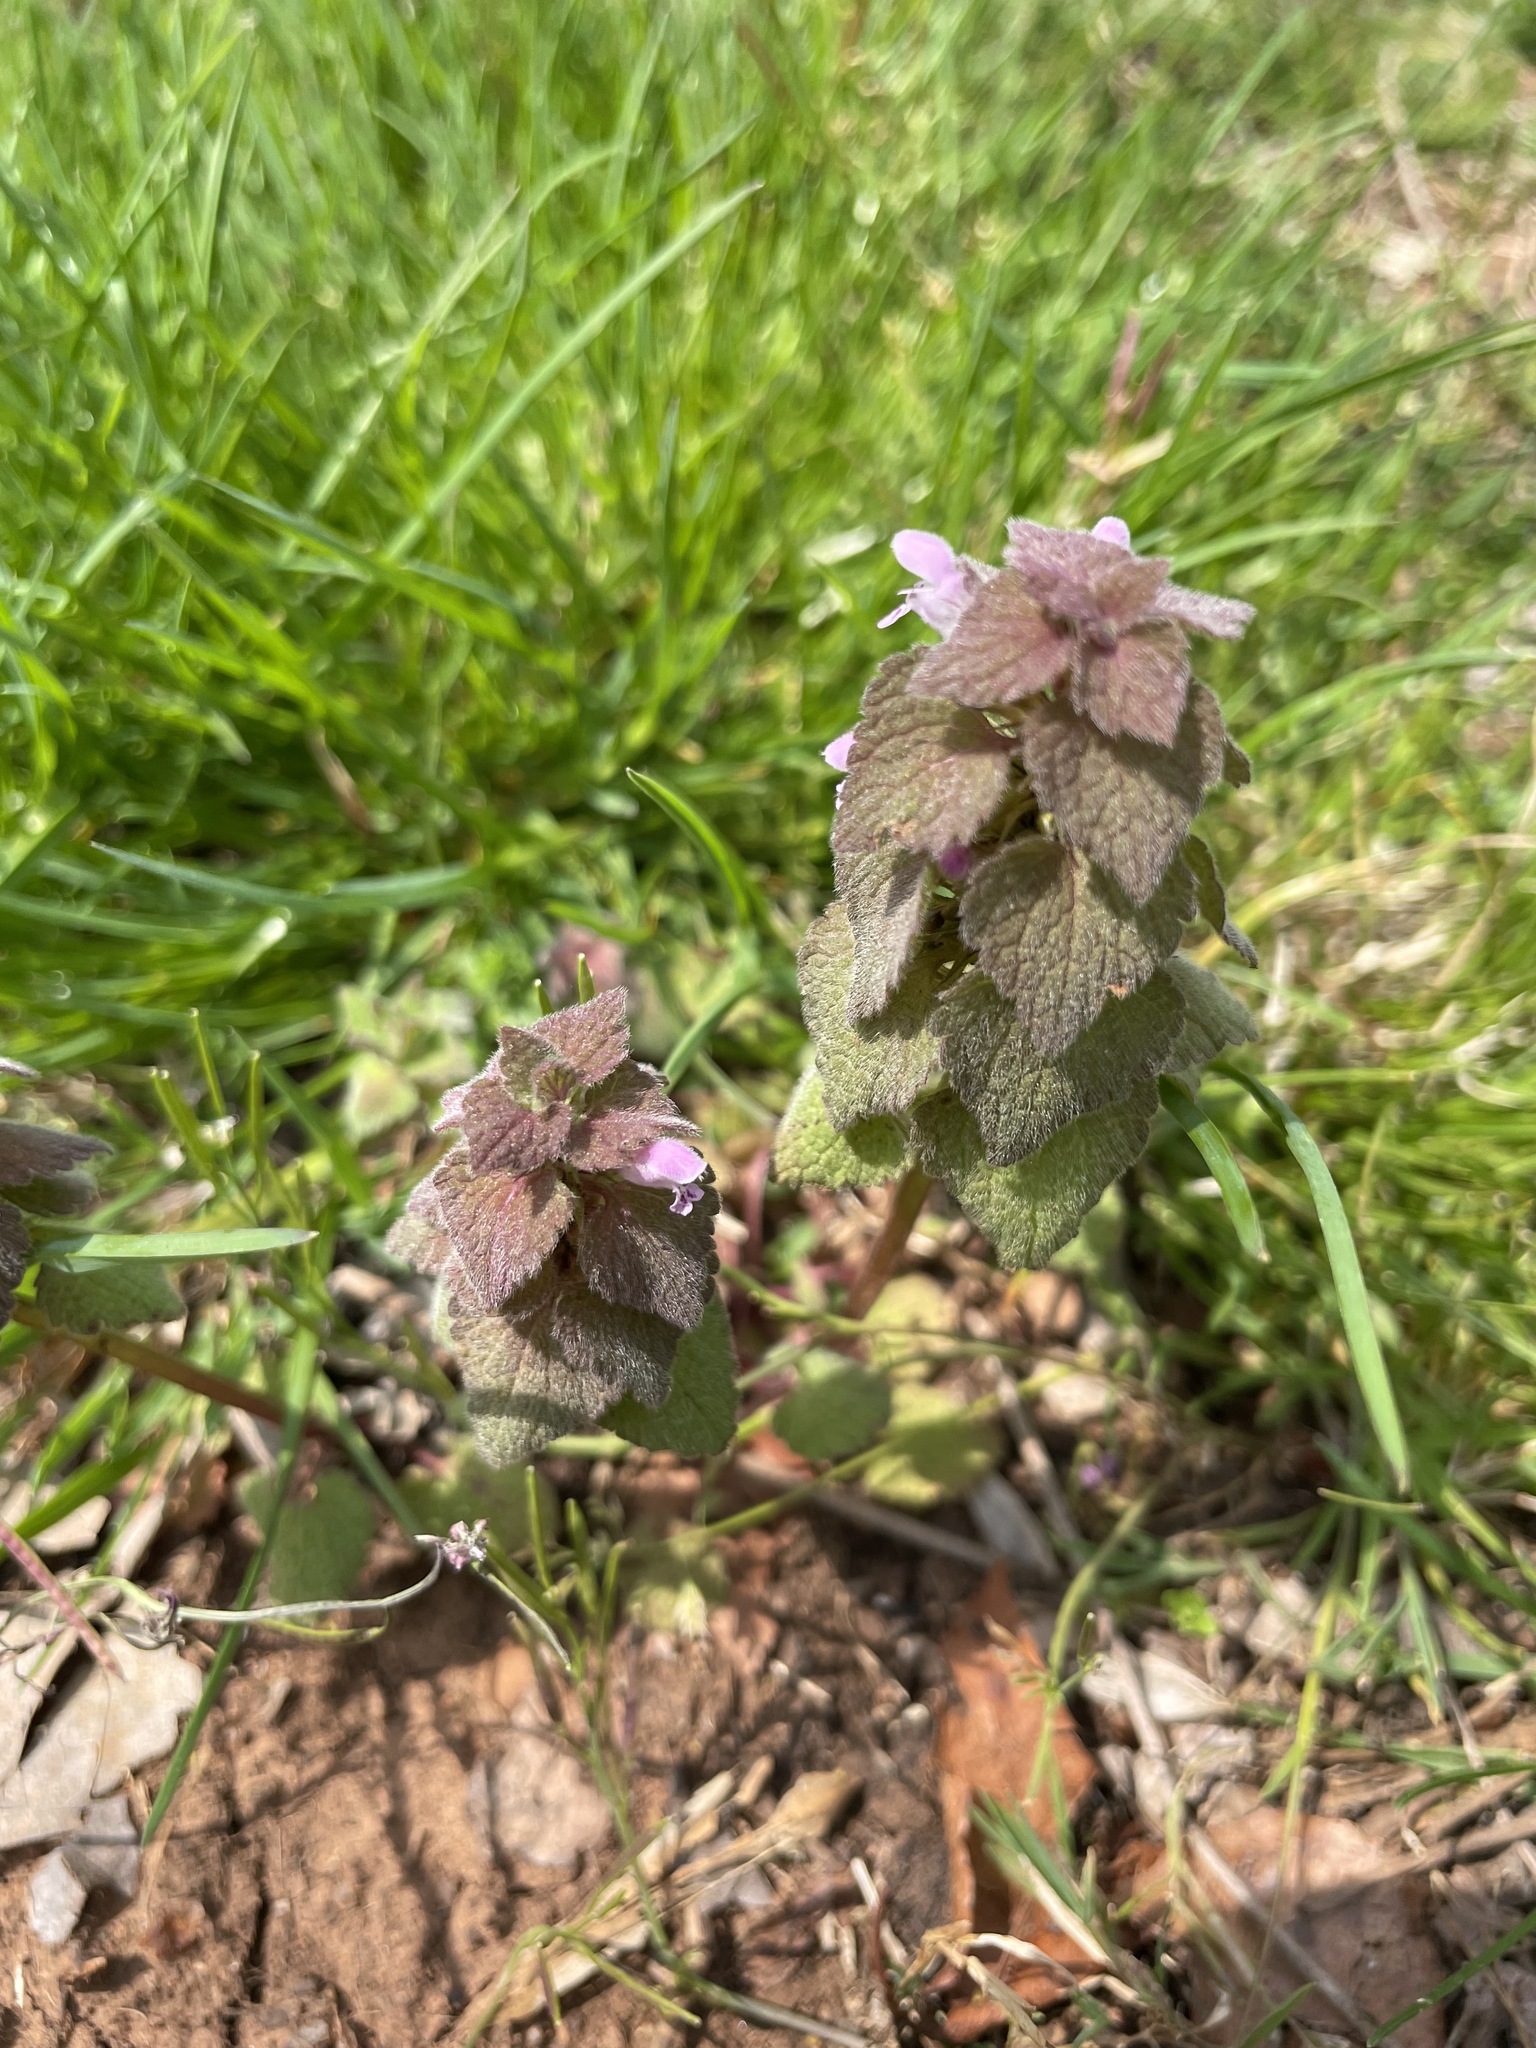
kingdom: Plantae
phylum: Tracheophyta
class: Magnoliopsida
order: Lamiales
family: Lamiaceae
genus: Lamium
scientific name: Lamium purpureum
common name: Red dead-nettle
